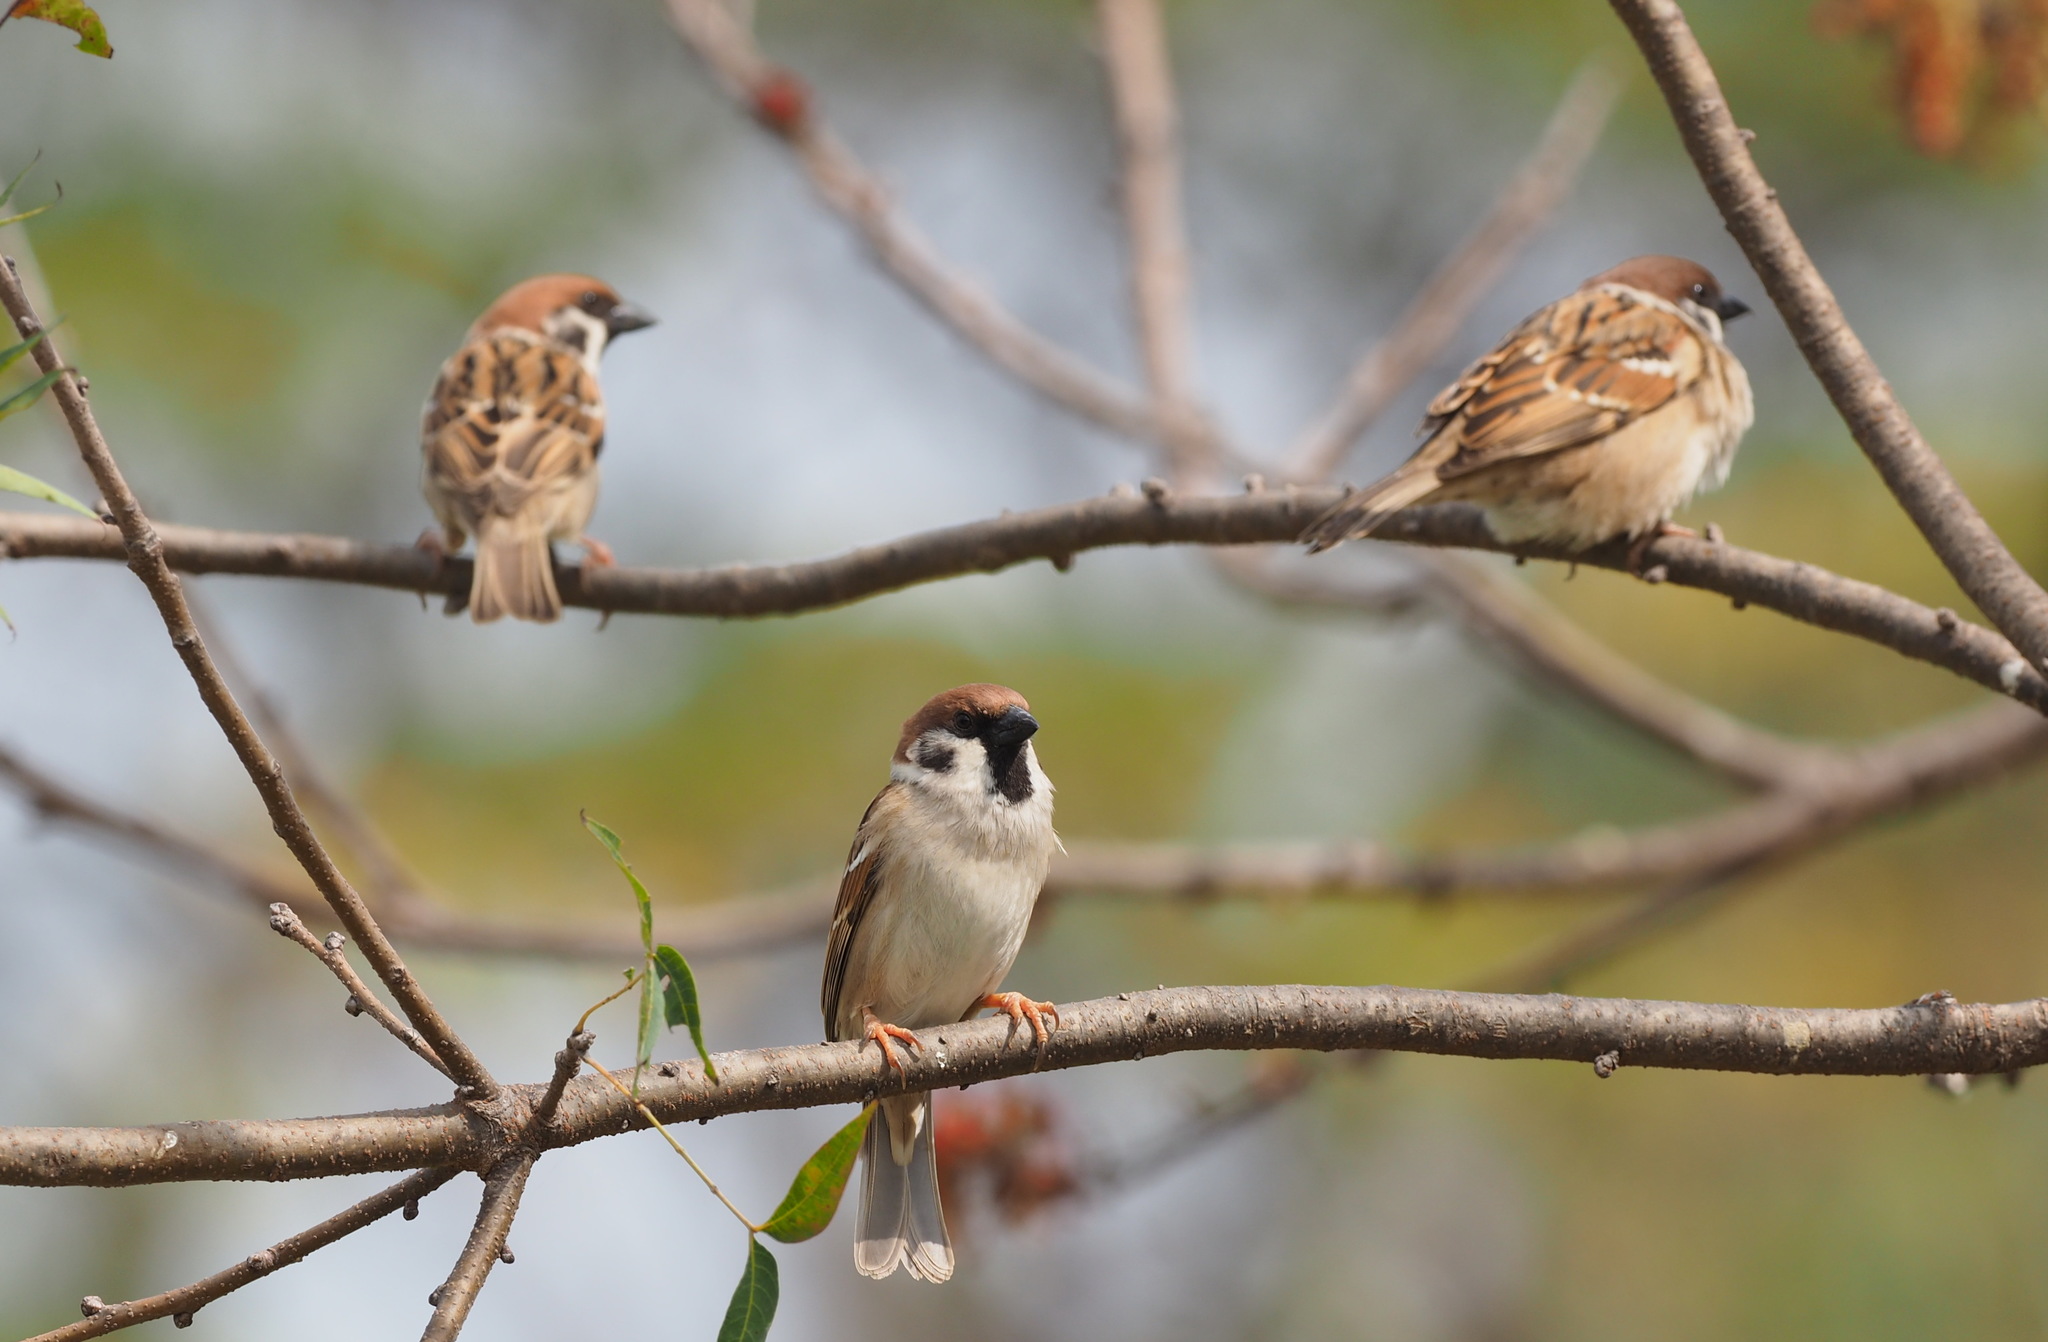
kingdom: Animalia
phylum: Chordata
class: Aves
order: Passeriformes
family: Passeridae
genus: Passer
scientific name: Passer montanus
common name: Eurasian tree sparrow
